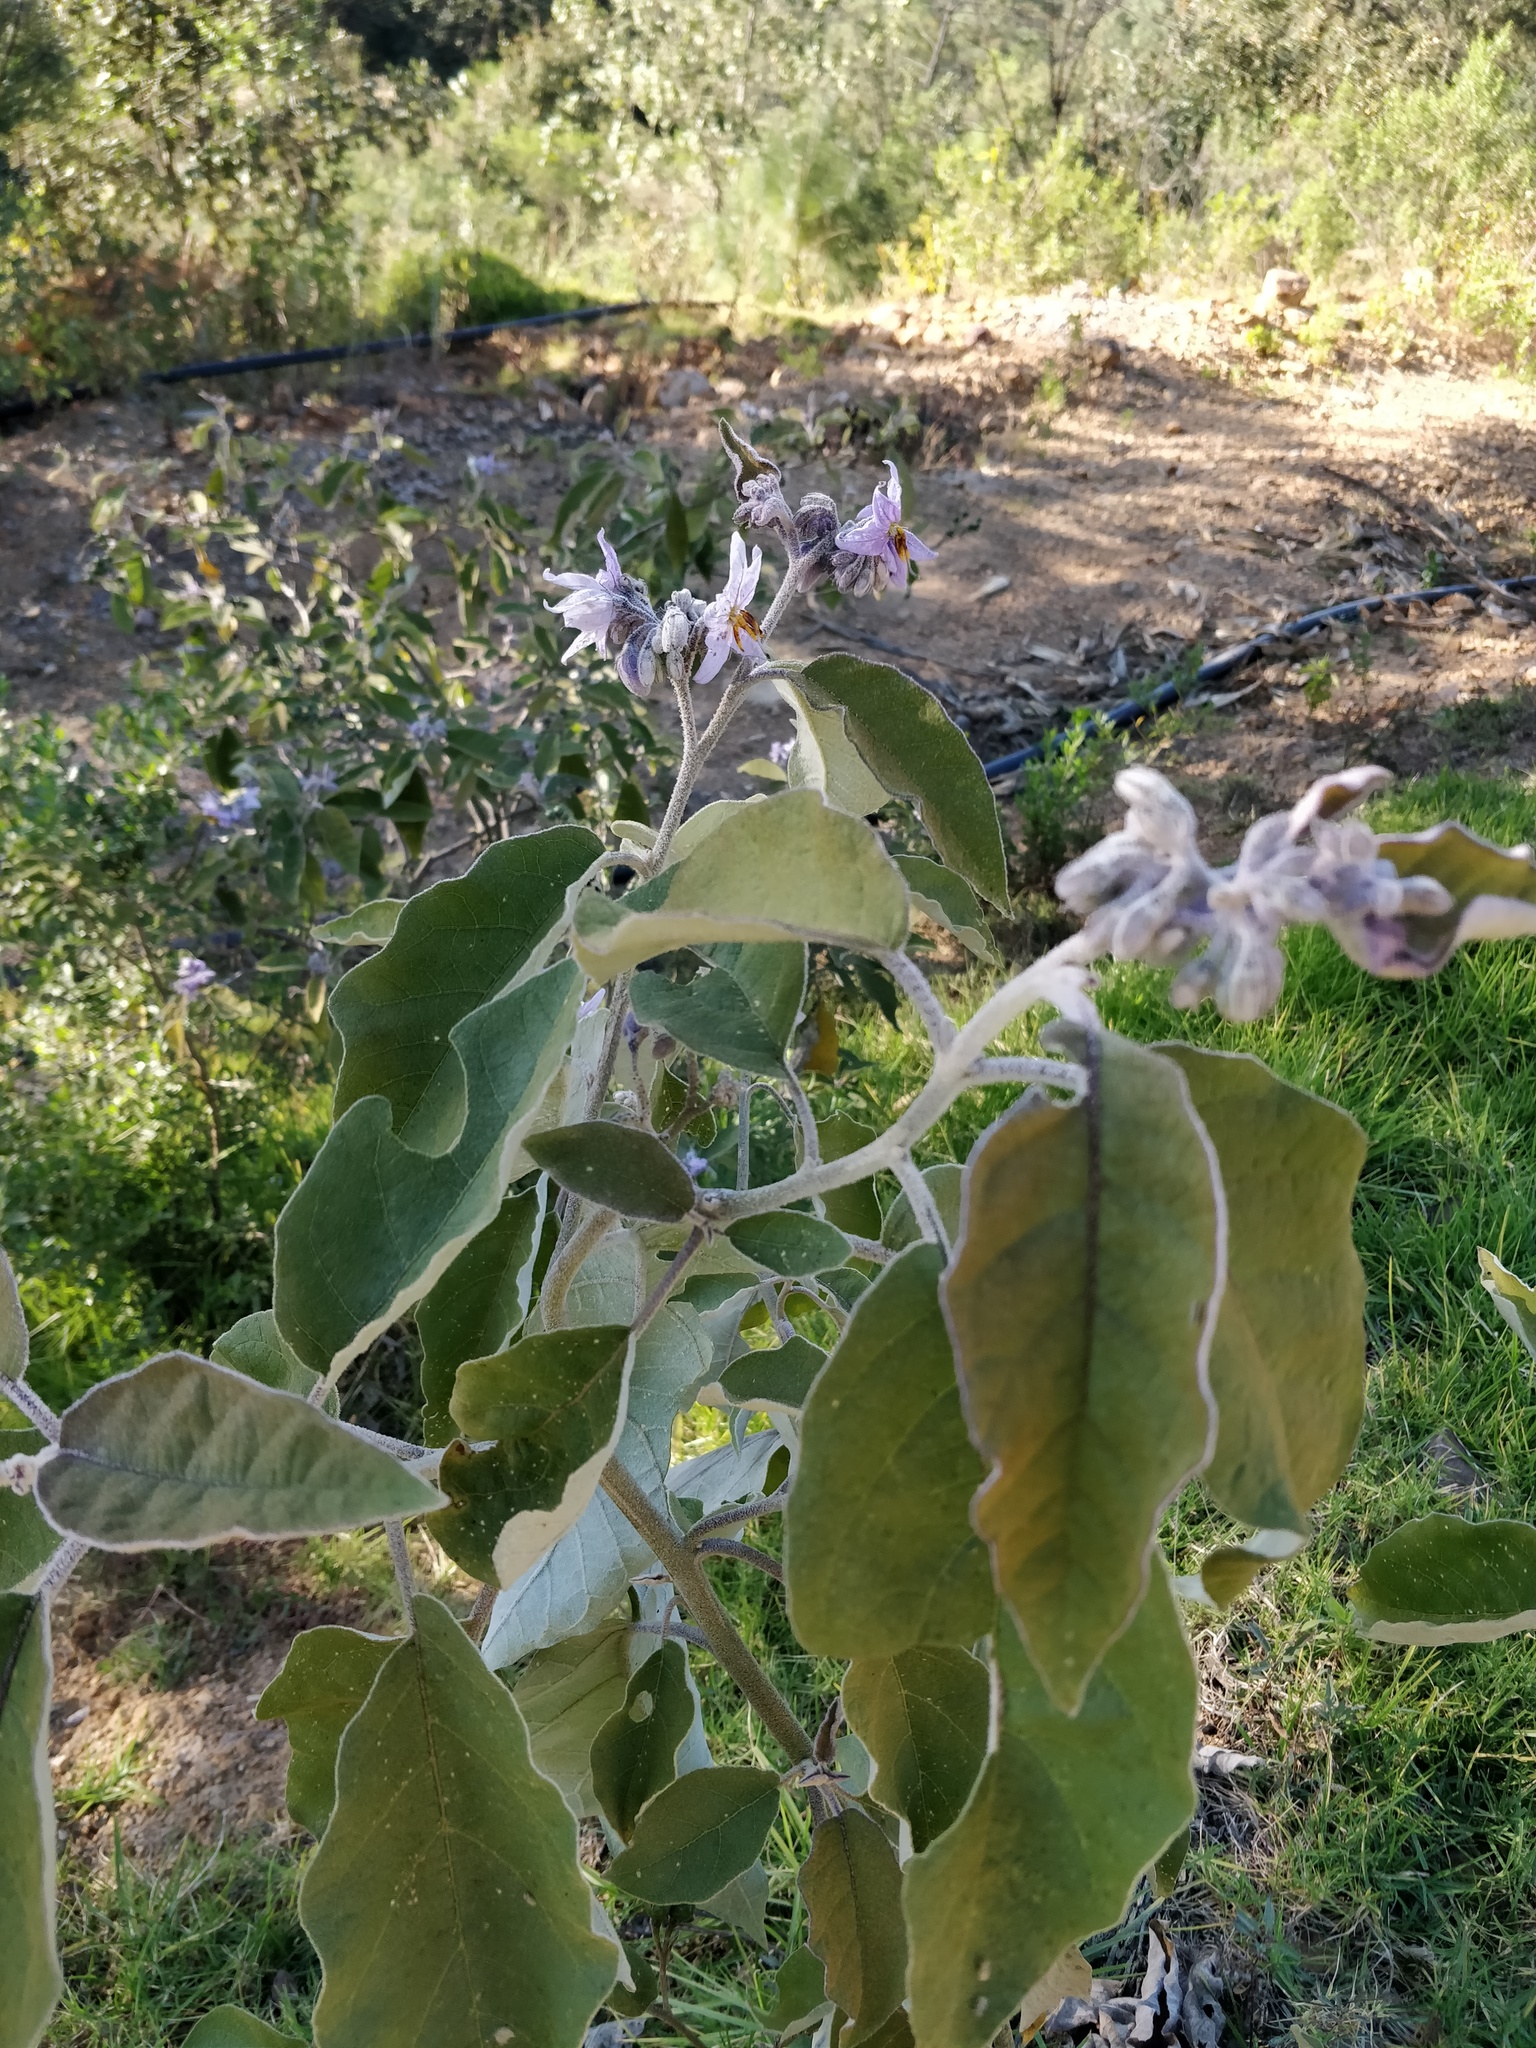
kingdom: Plantae
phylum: Tracheophyta
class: Magnoliopsida
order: Solanales
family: Solanaceae
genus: Solanum
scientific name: Solanum lanceolatum
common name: Orangeberry nightshade
